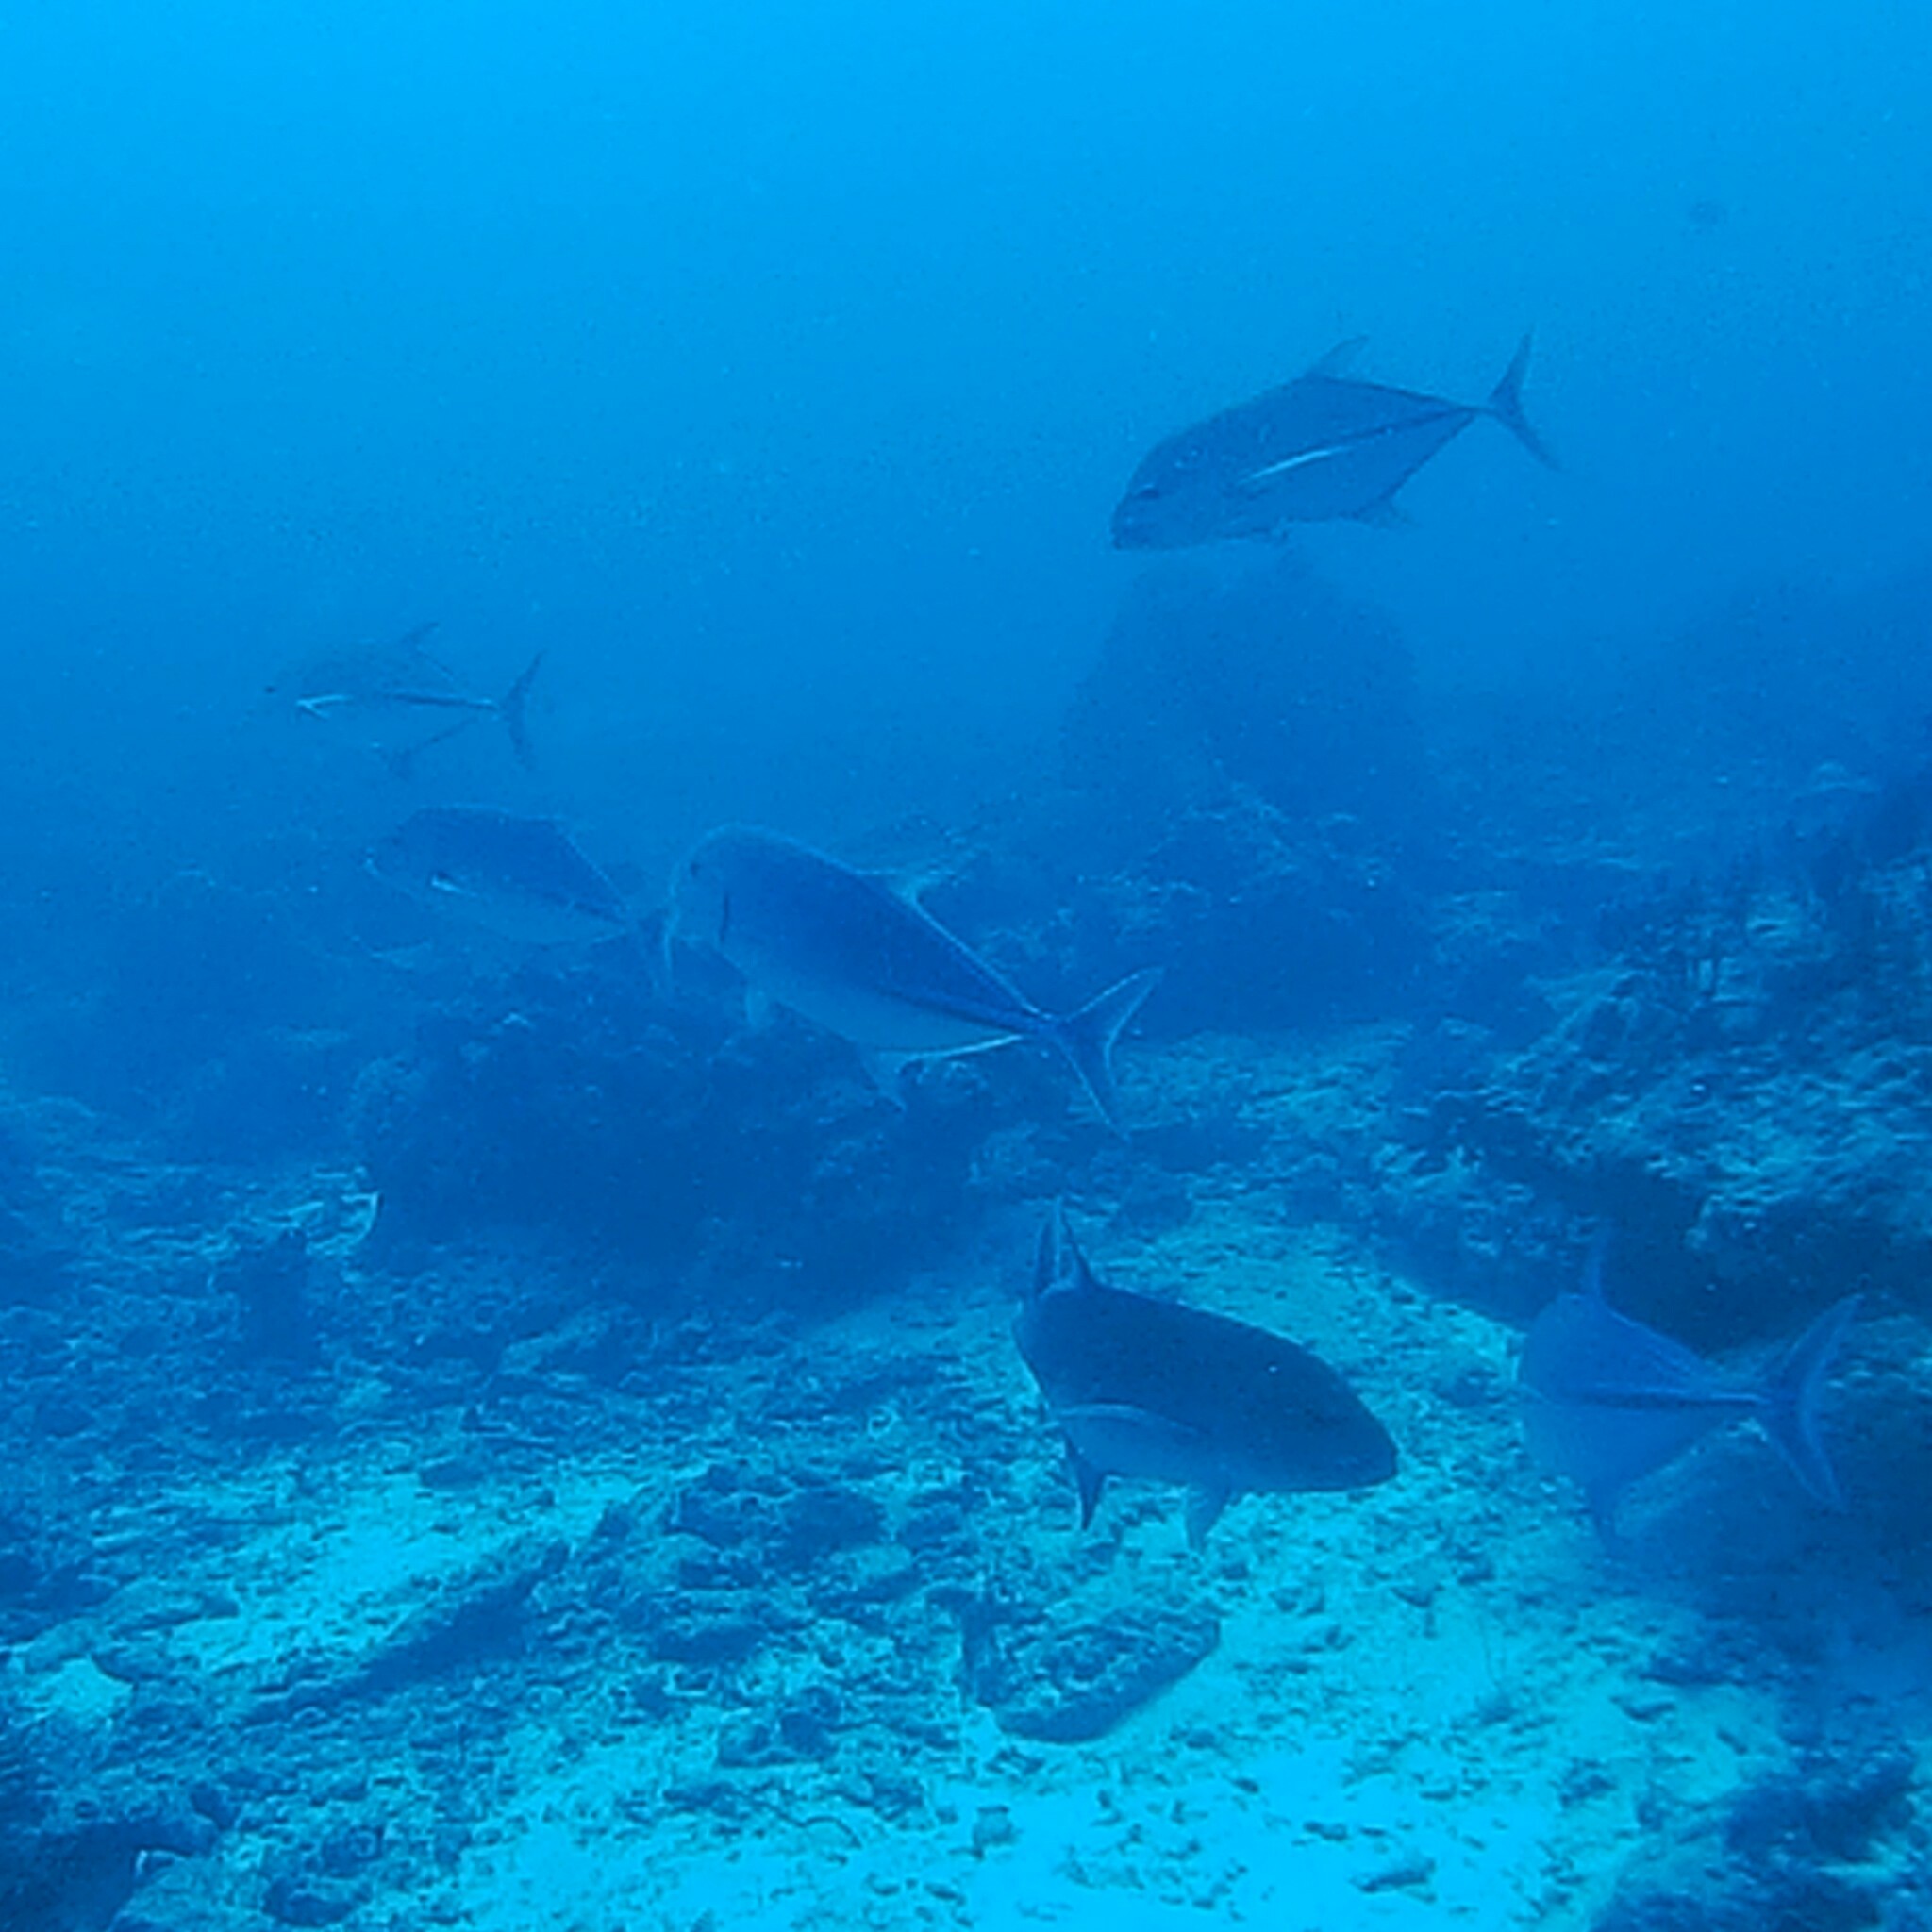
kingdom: Animalia
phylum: Chordata
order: Perciformes
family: Carangidae
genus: Caranx
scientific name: Caranx melampygus
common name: Bluefin trevally
